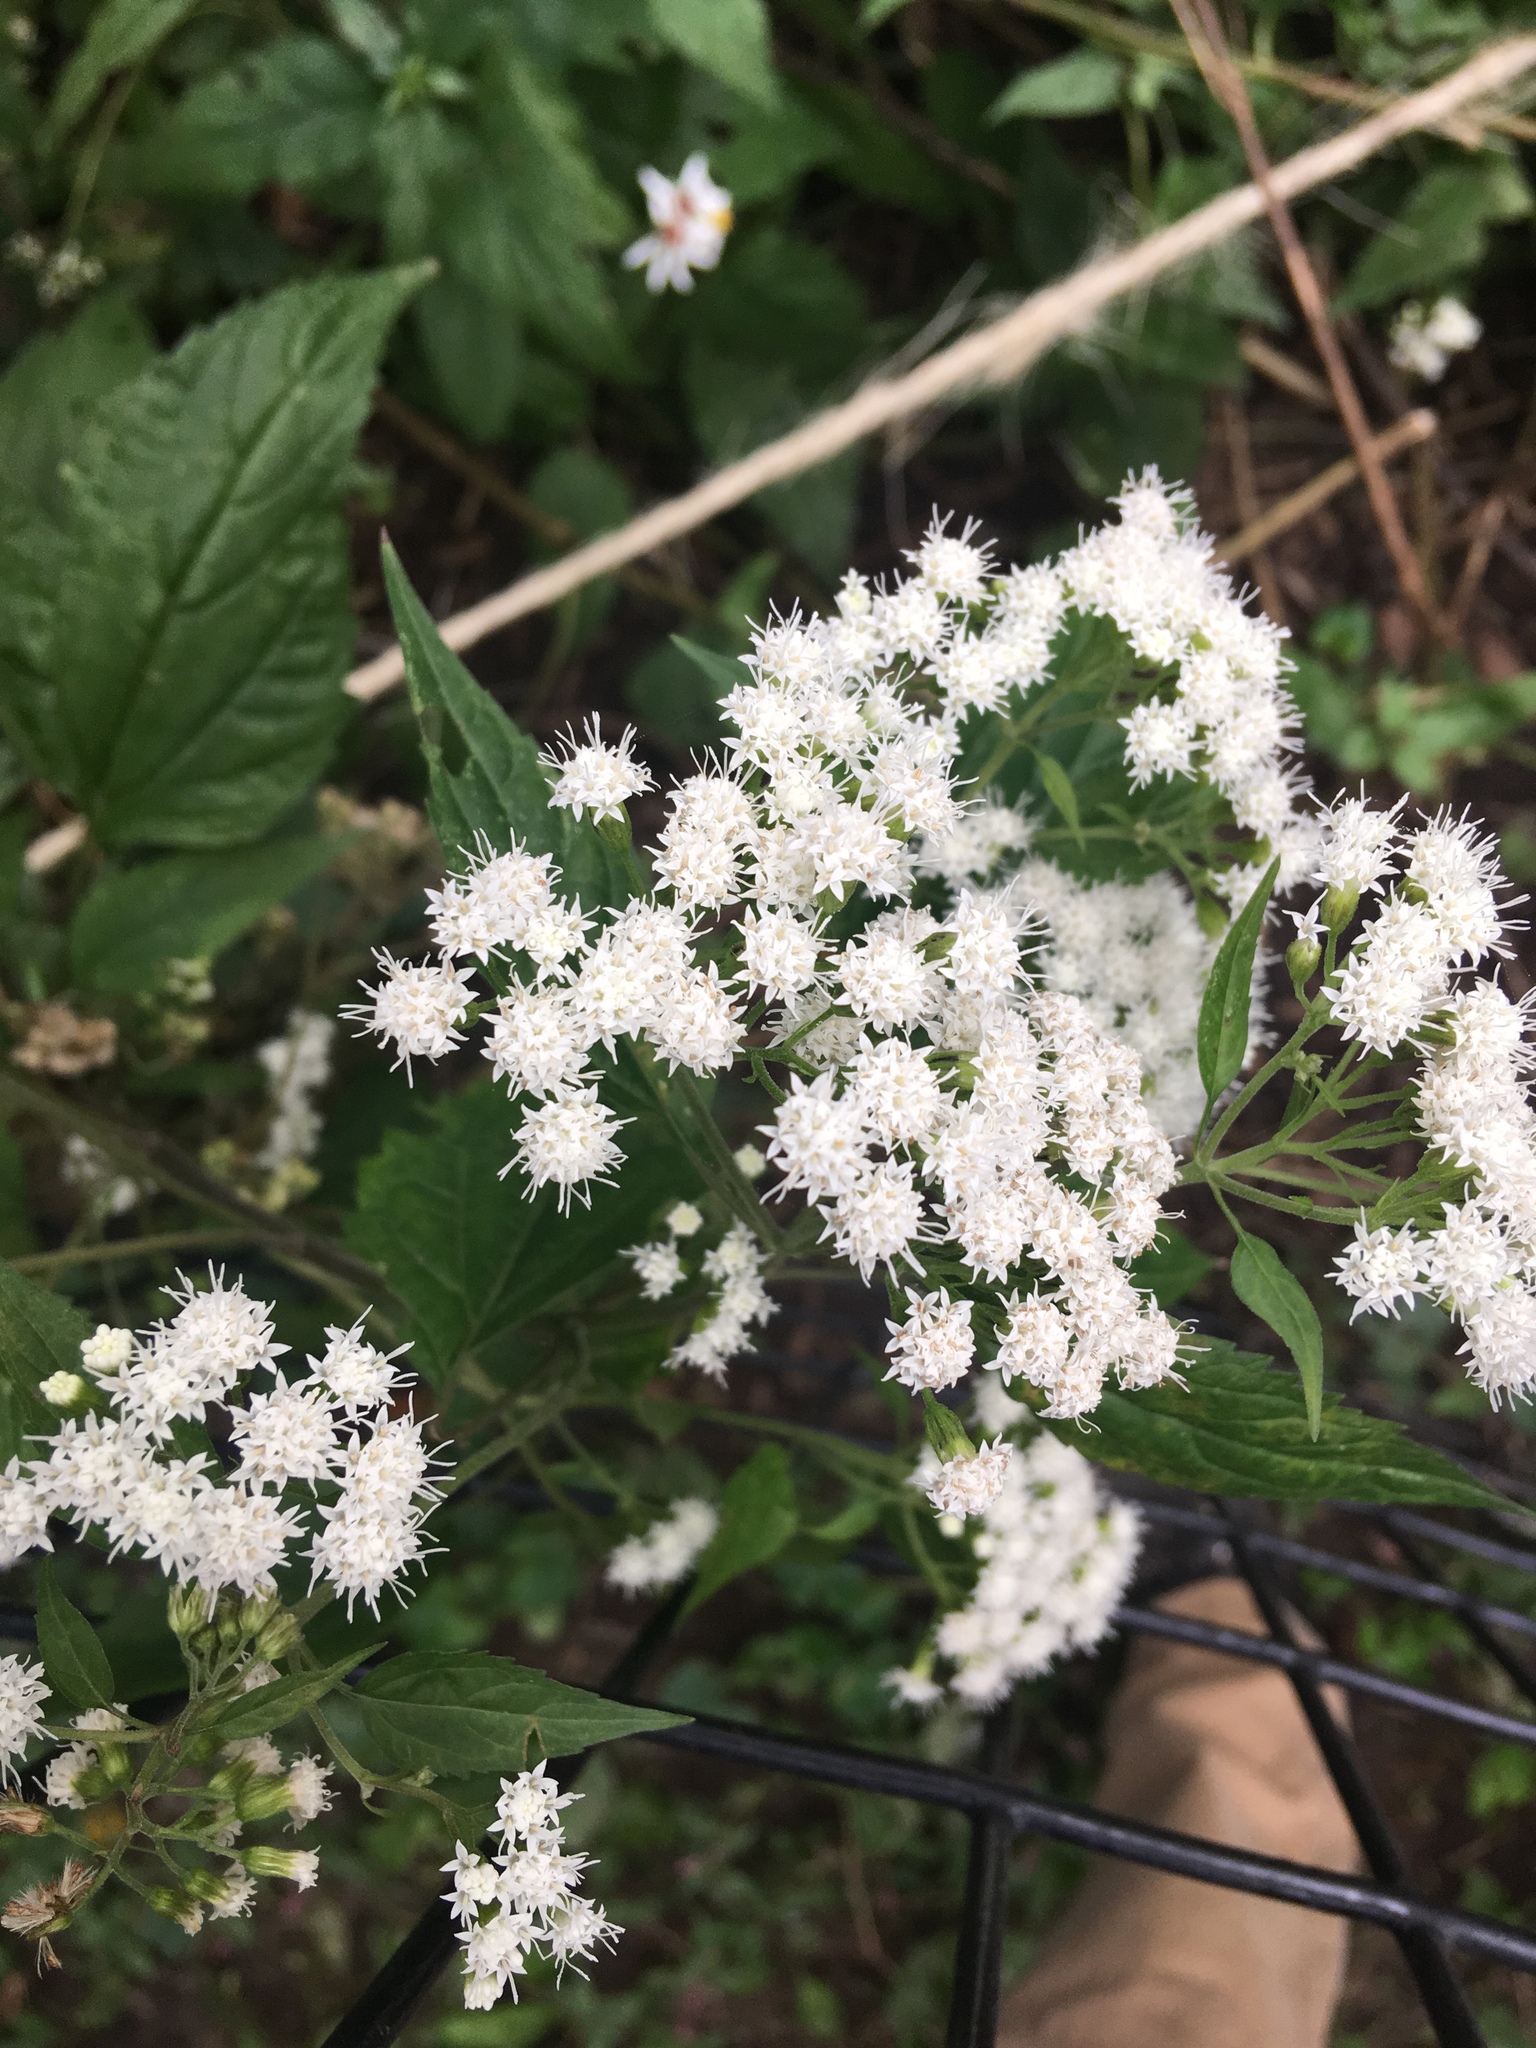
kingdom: Plantae
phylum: Tracheophyta
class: Magnoliopsida
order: Asterales
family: Asteraceae
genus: Ageratina
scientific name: Ageratina altissima
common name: White snakeroot
